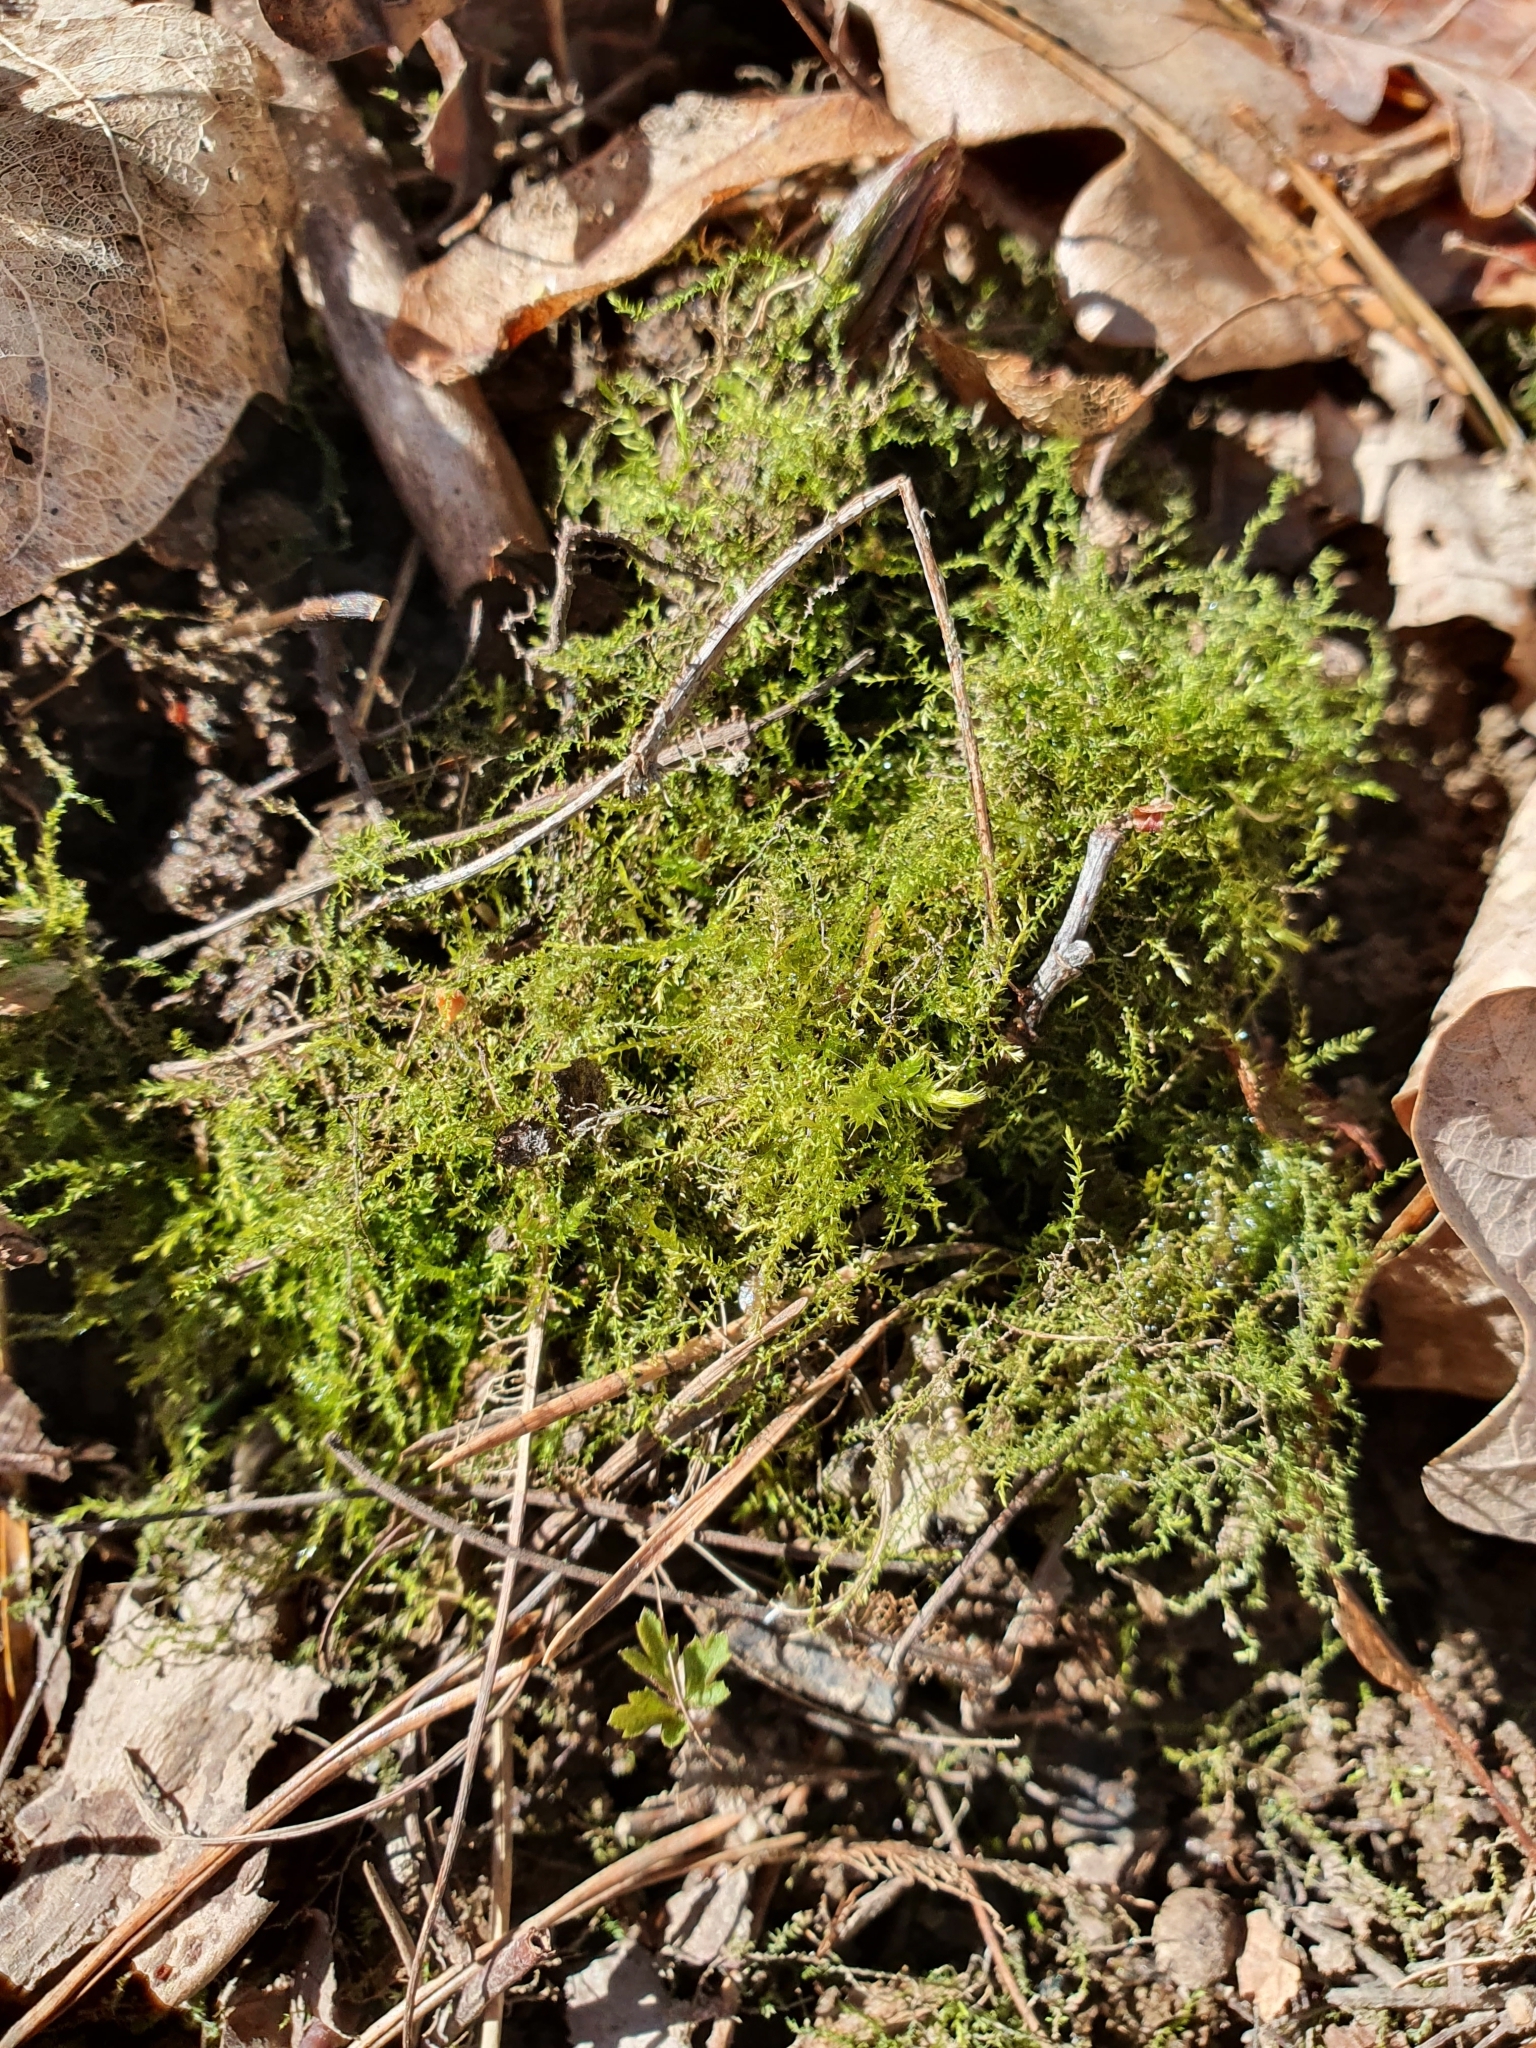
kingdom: Plantae
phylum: Bryophyta
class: Bryopsida
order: Hypnales
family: Brachytheciaceae
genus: Oxyrrhynchium
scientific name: Oxyrrhynchium hians
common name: Spreading beaked moss
